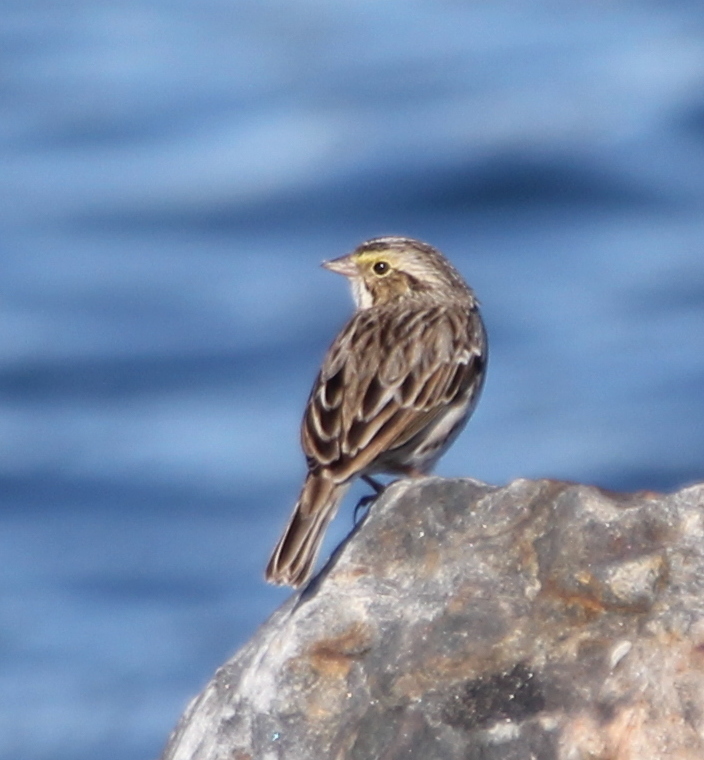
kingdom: Animalia
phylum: Chordata
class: Aves
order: Passeriformes
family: Passerellidae
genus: Passerculus
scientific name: Passerculus sandwichensis
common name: Savannah sparrow
